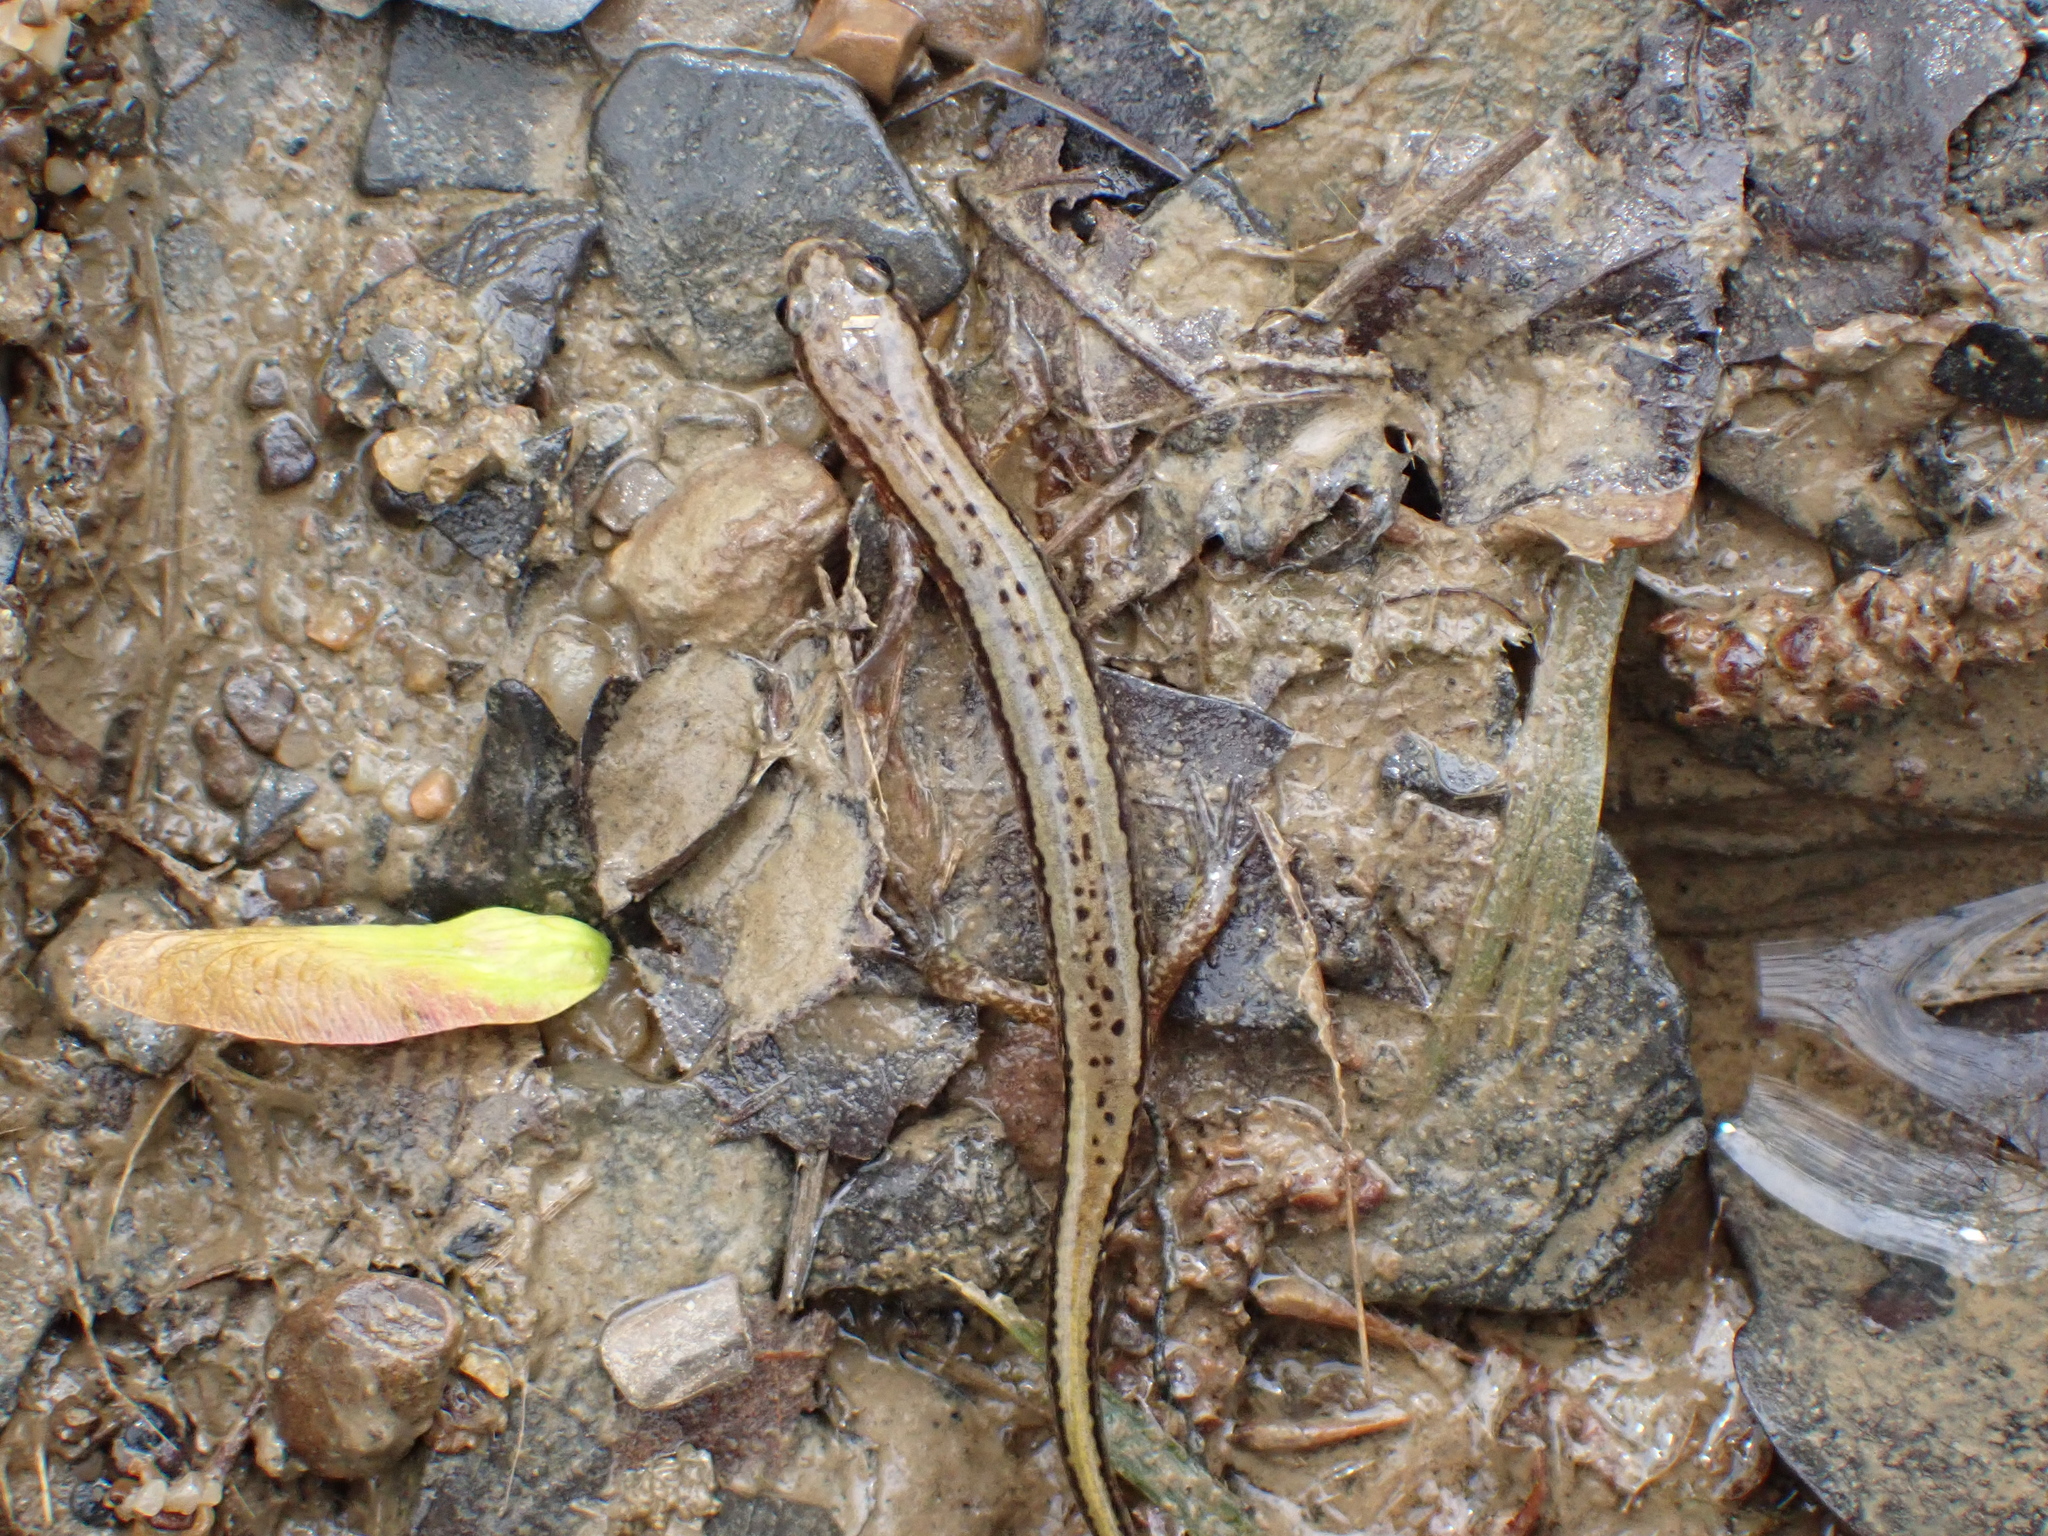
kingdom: Animalia
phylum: Chordata
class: Amphibia
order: Caudata
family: Plethodontidae
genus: Eurycea
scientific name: Eurycea cirrigera
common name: Southern two-lined salamander
